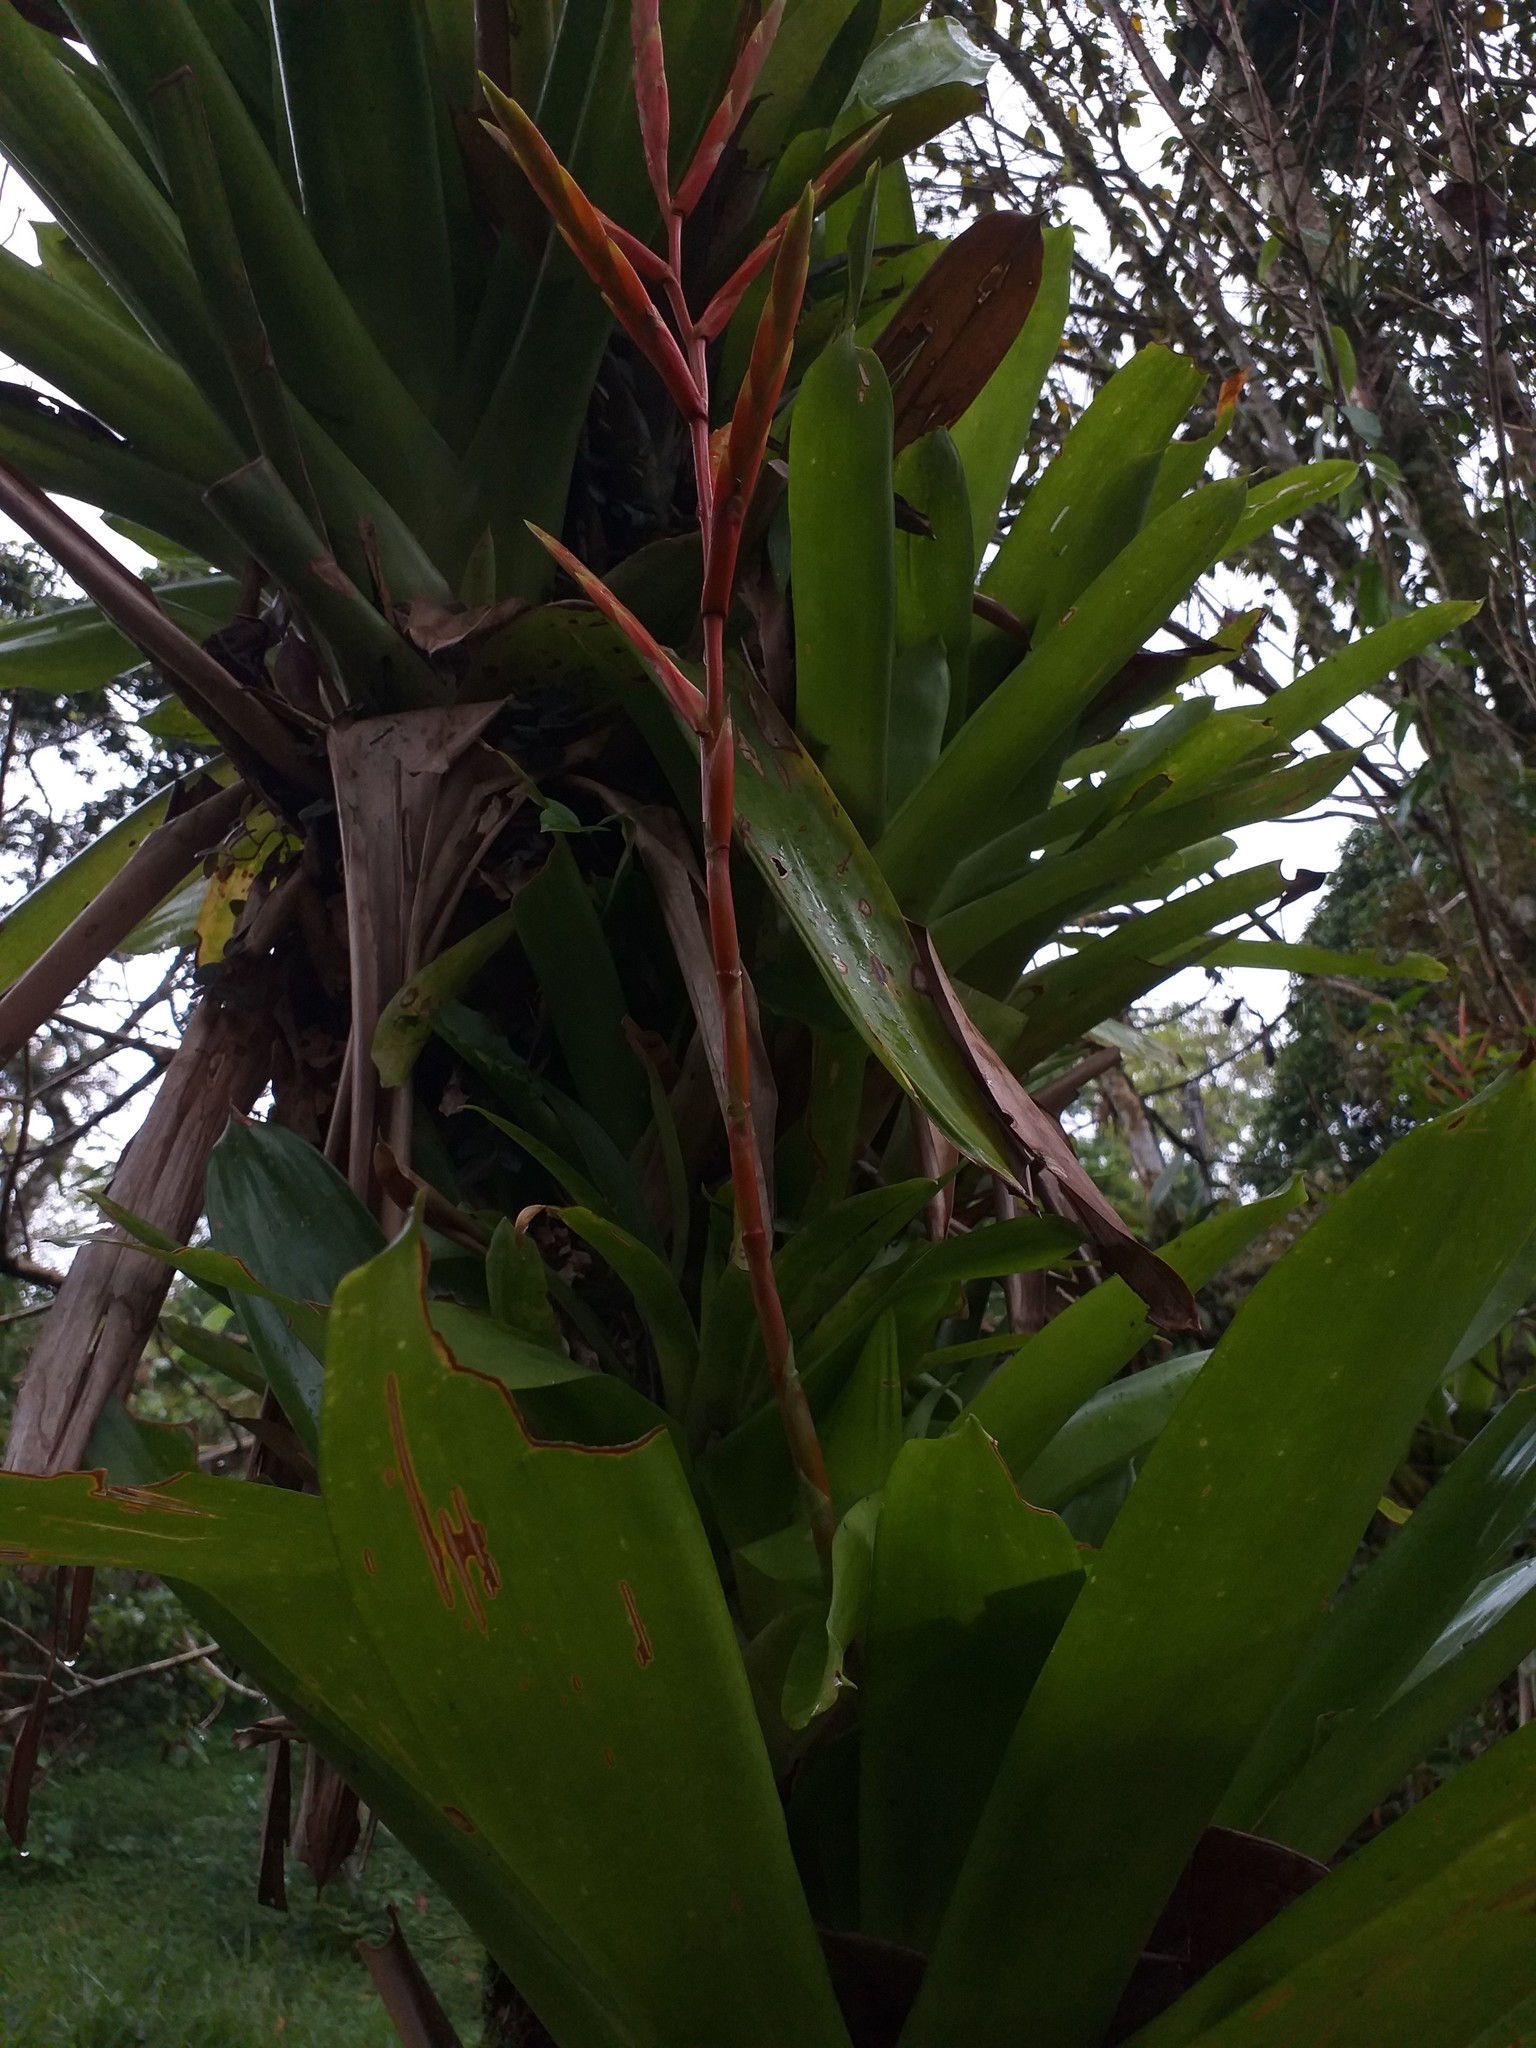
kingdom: Plantae
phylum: Tracheophyta
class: Liliopsida
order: Poales
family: Bromeliaceae
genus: Vriesea
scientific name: Vriesea rubra
